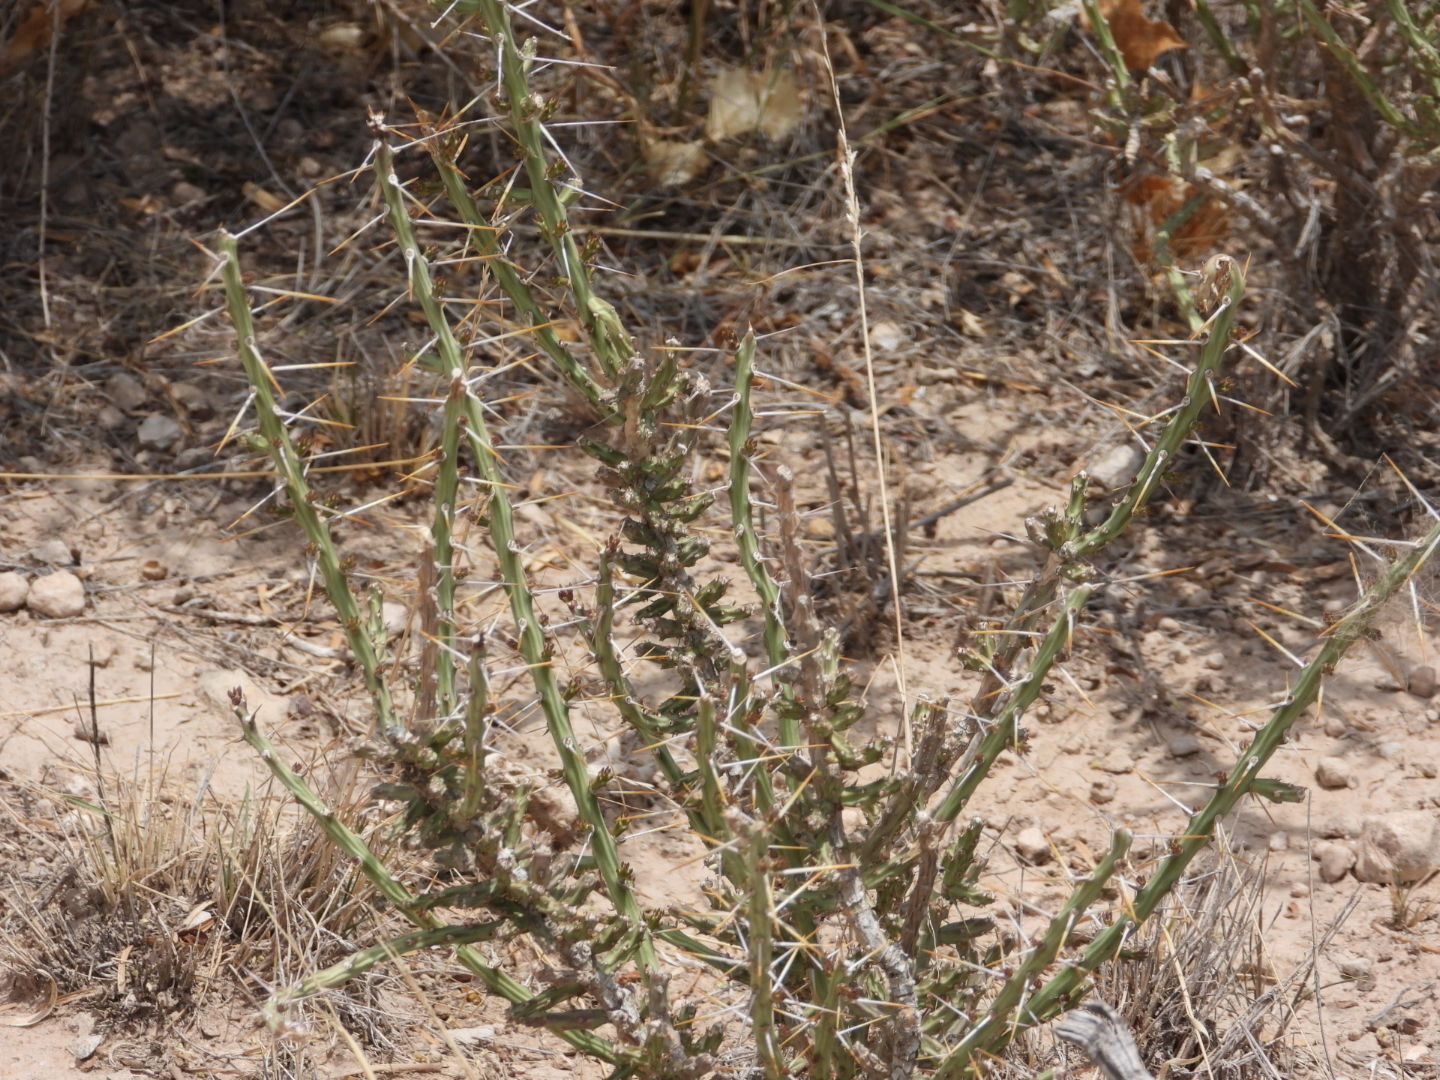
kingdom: Plantae
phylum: Tracheophyta
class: Magnoliopsida
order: Caryophyllales
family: Cactaceae
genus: Cylindropuntia
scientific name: Cylindropuntia leptocaulis
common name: Christmas cactus
